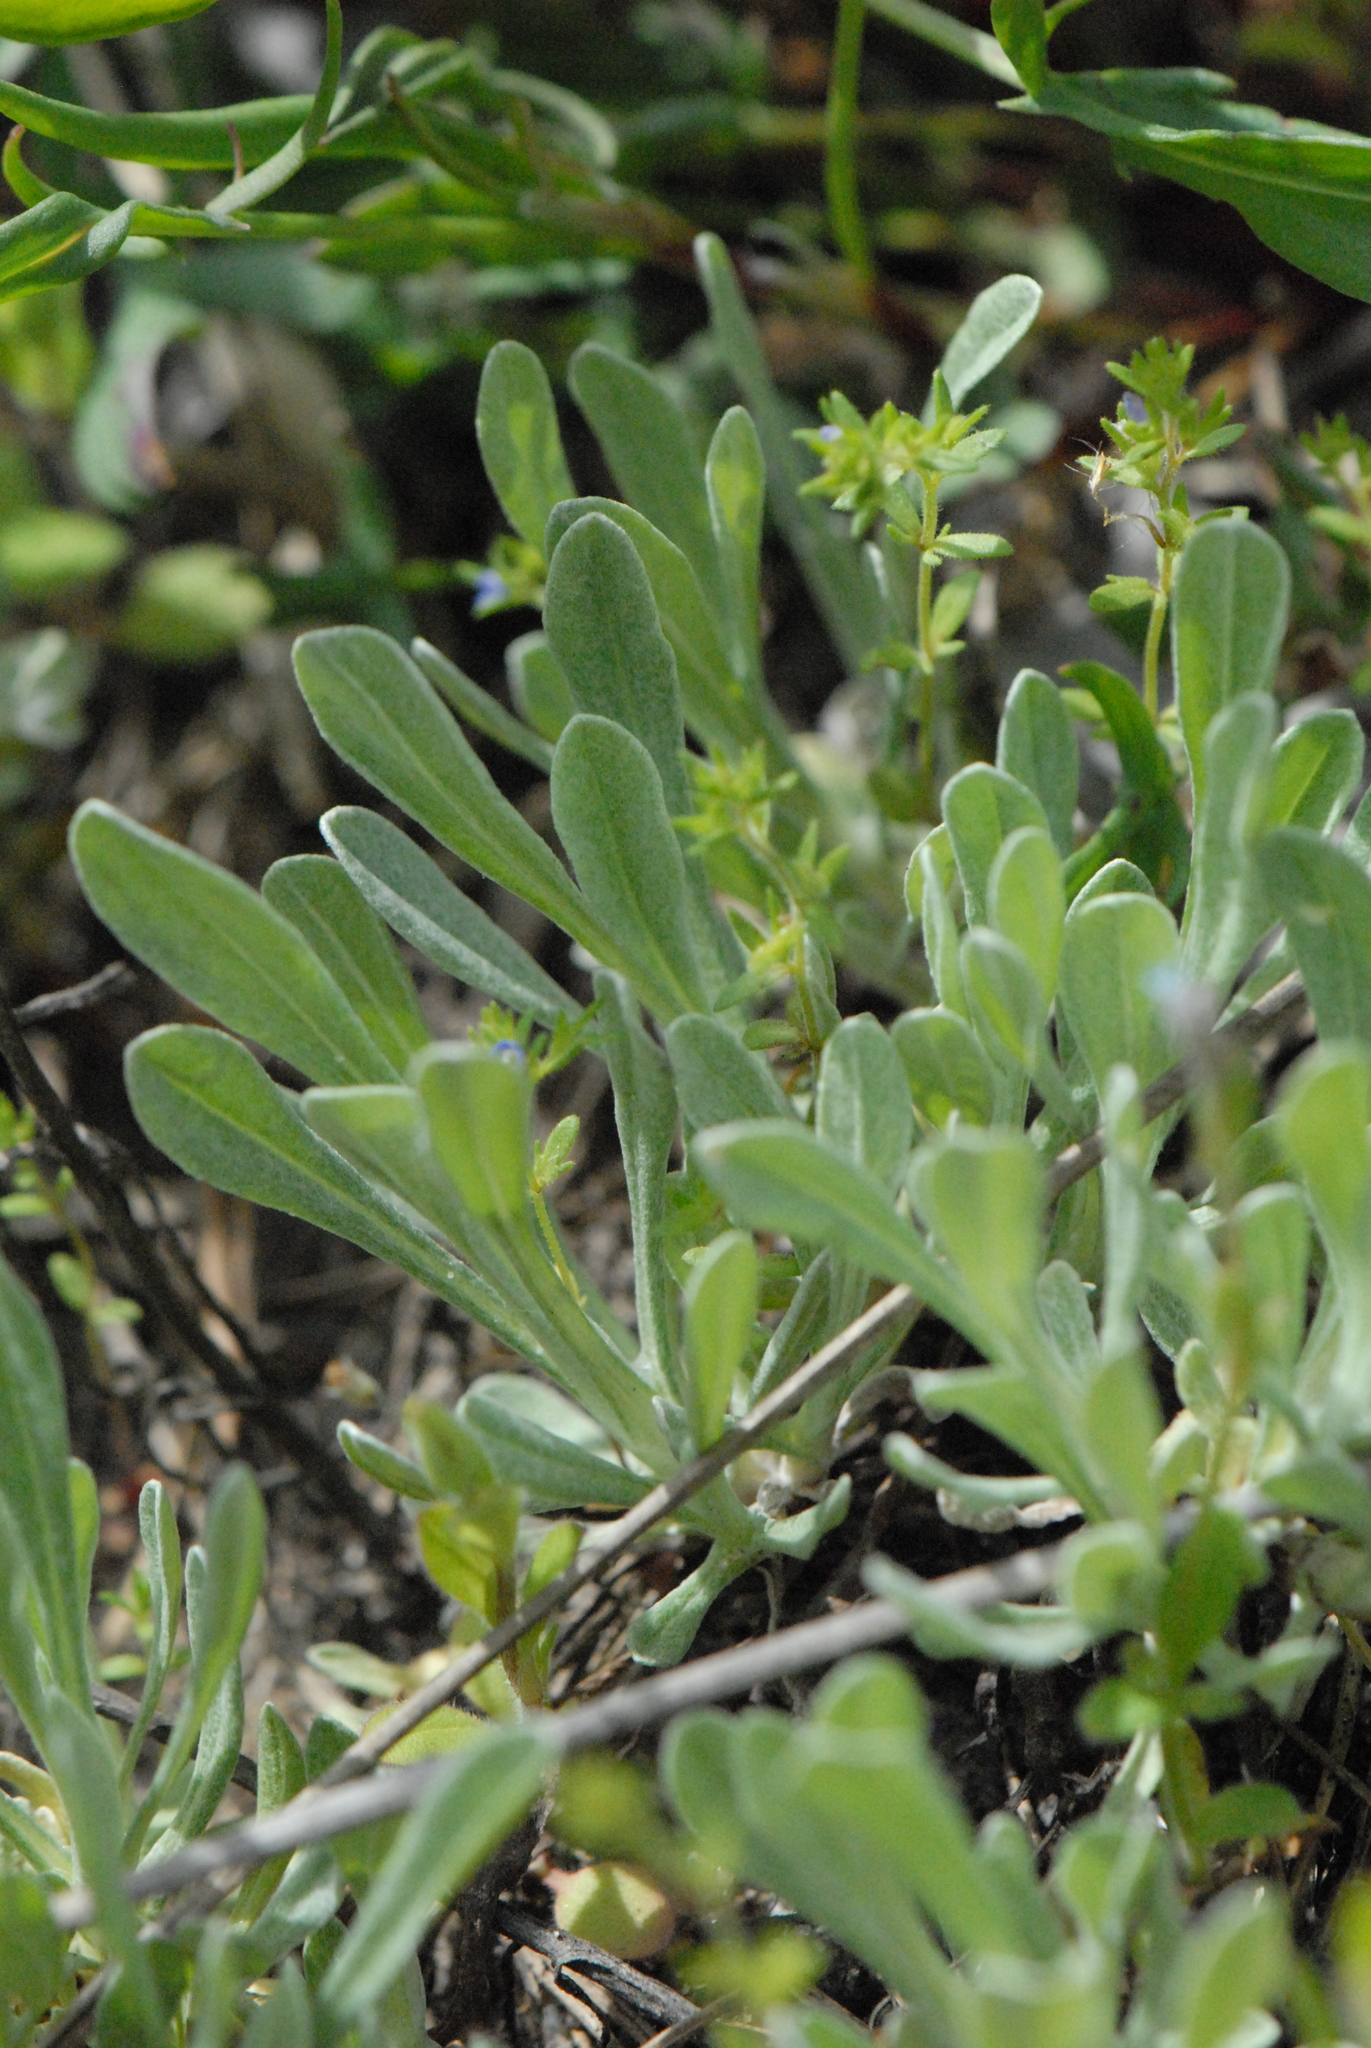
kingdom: Plantae
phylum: Tracheophyta
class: Magnoliopsida
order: Asterales
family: Asteraceae
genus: Helichrysum
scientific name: Helichrysum arenarium
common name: Strawflower
